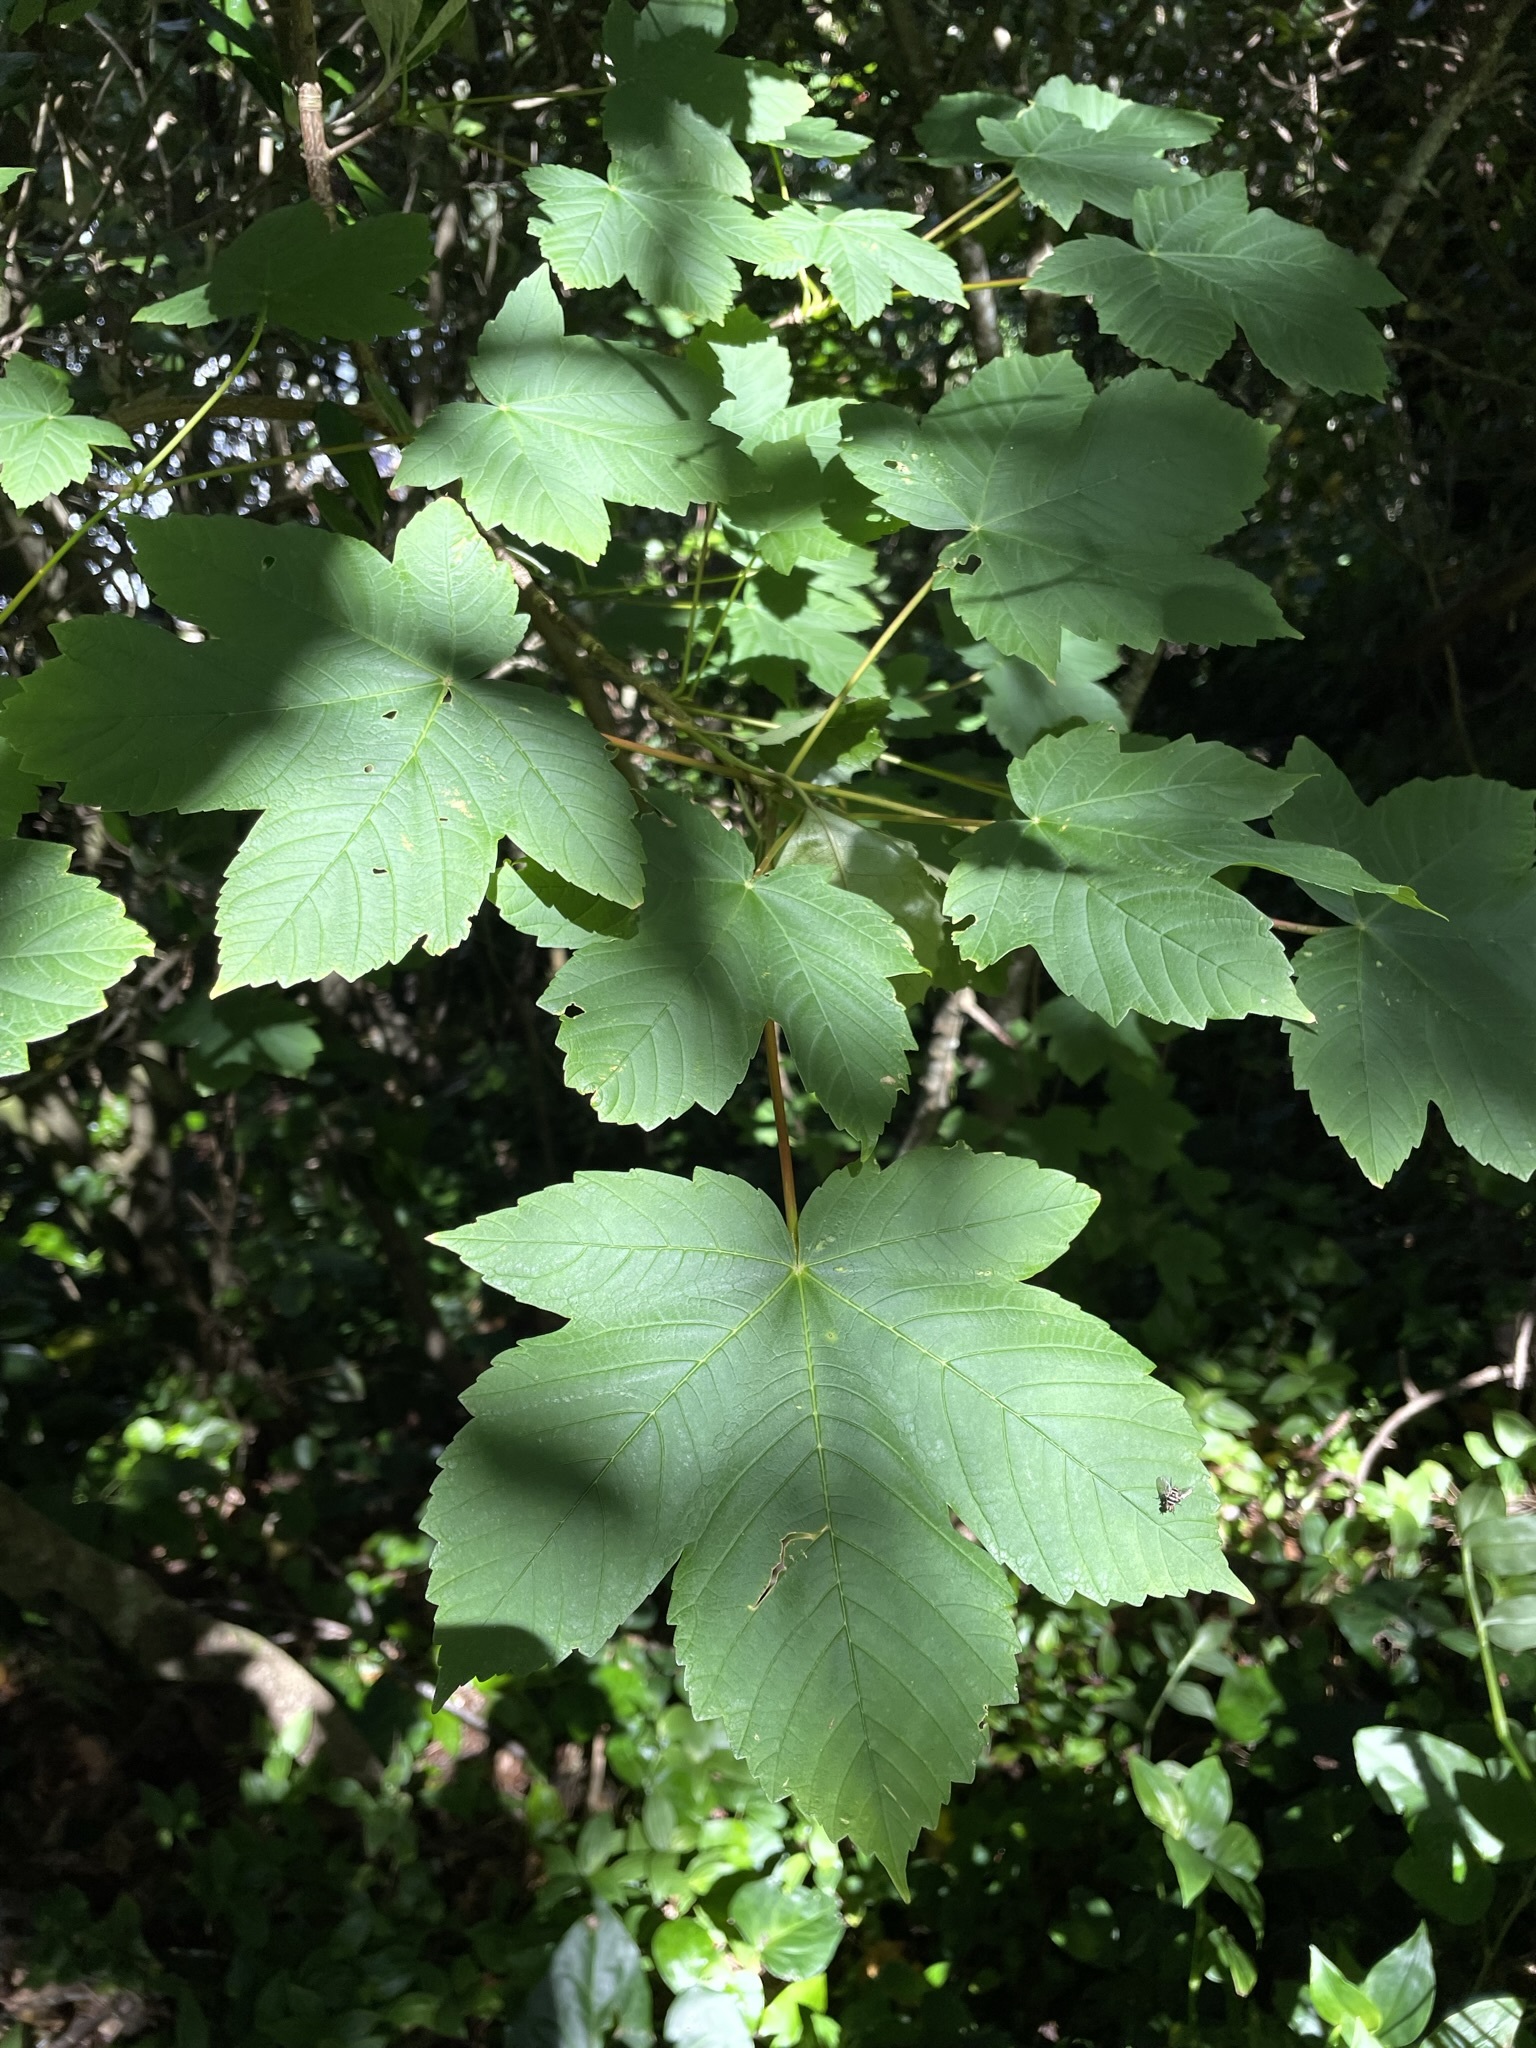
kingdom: Plantae
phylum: Tracheophyta
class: Magnoliopsida
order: Sapindales
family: Sapindaceae
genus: Acer
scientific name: Acer pseudoplatanus
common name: Sycamore
